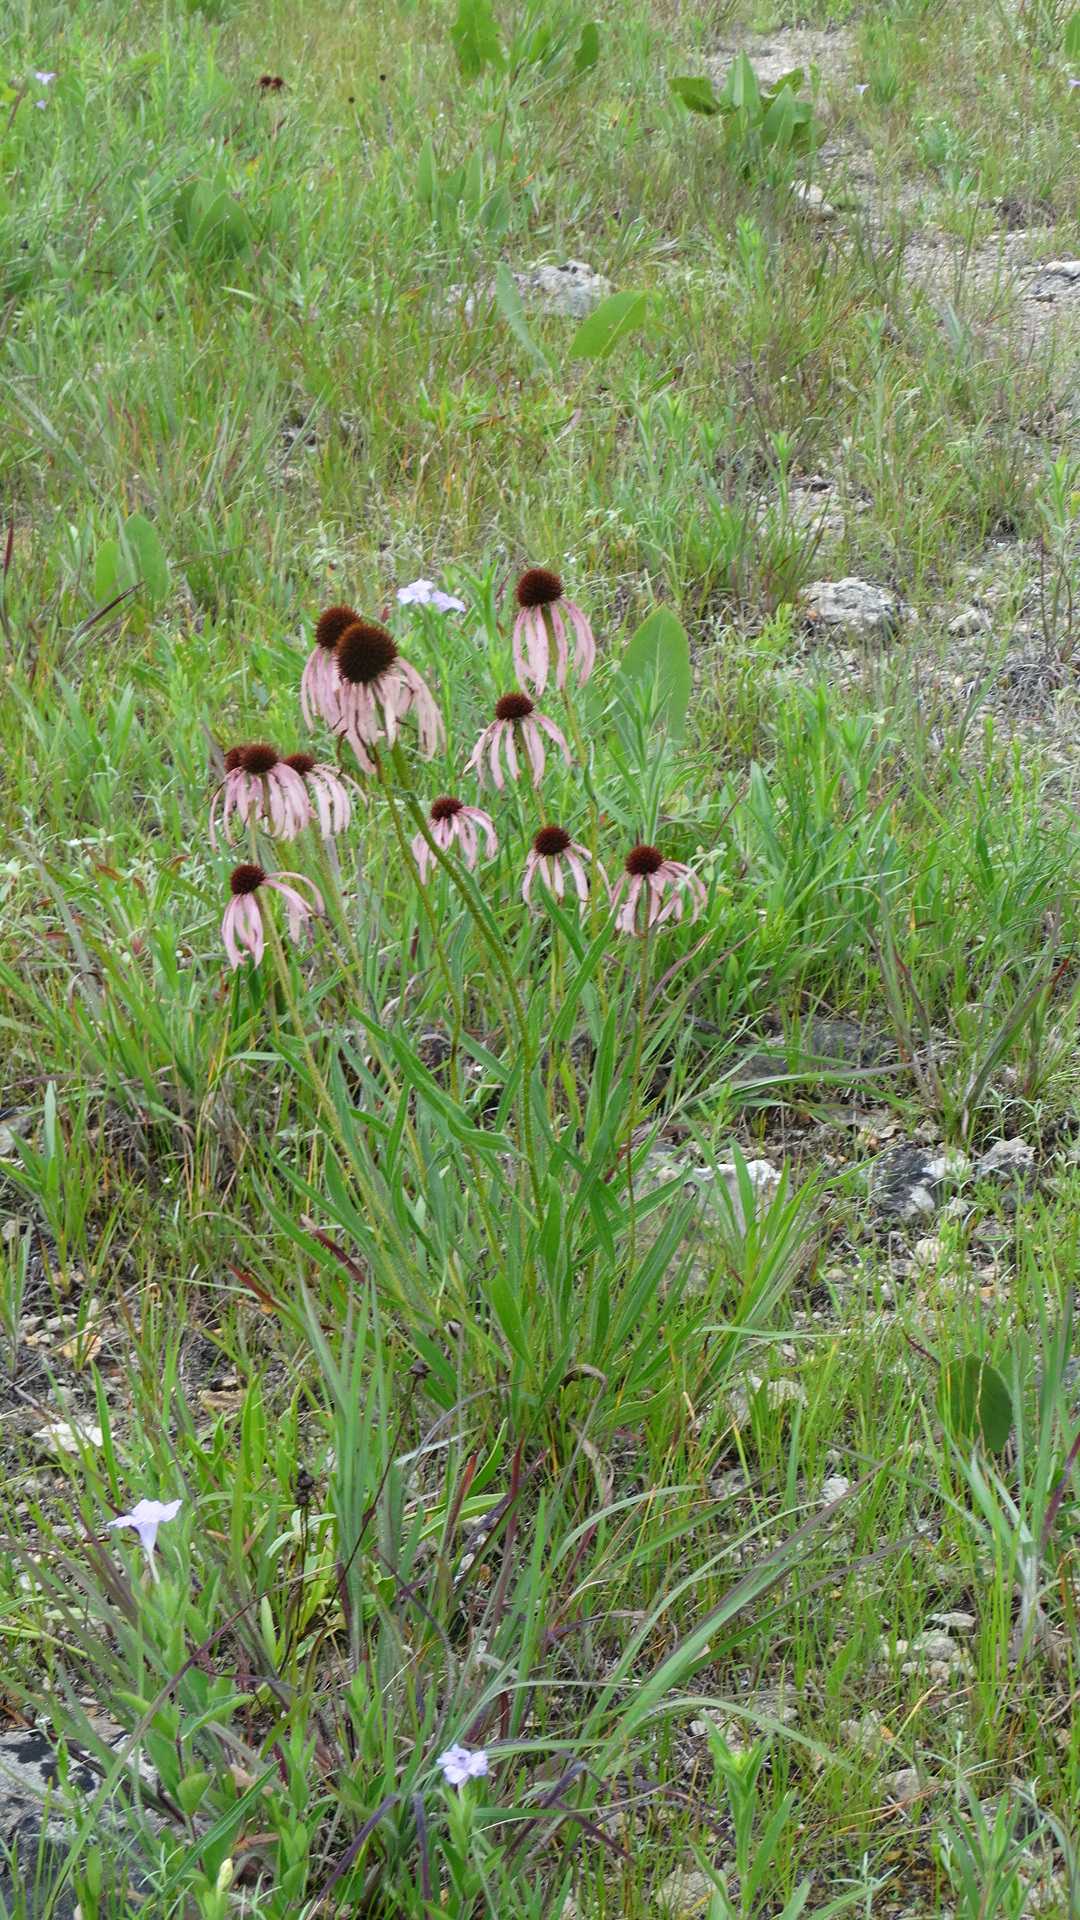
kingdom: Plantae
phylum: Tracheophyta
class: Magnoliopsida
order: Asterales
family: Asteraceae
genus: Echinacea
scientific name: Echinacea pallida
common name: Pale echinacea
